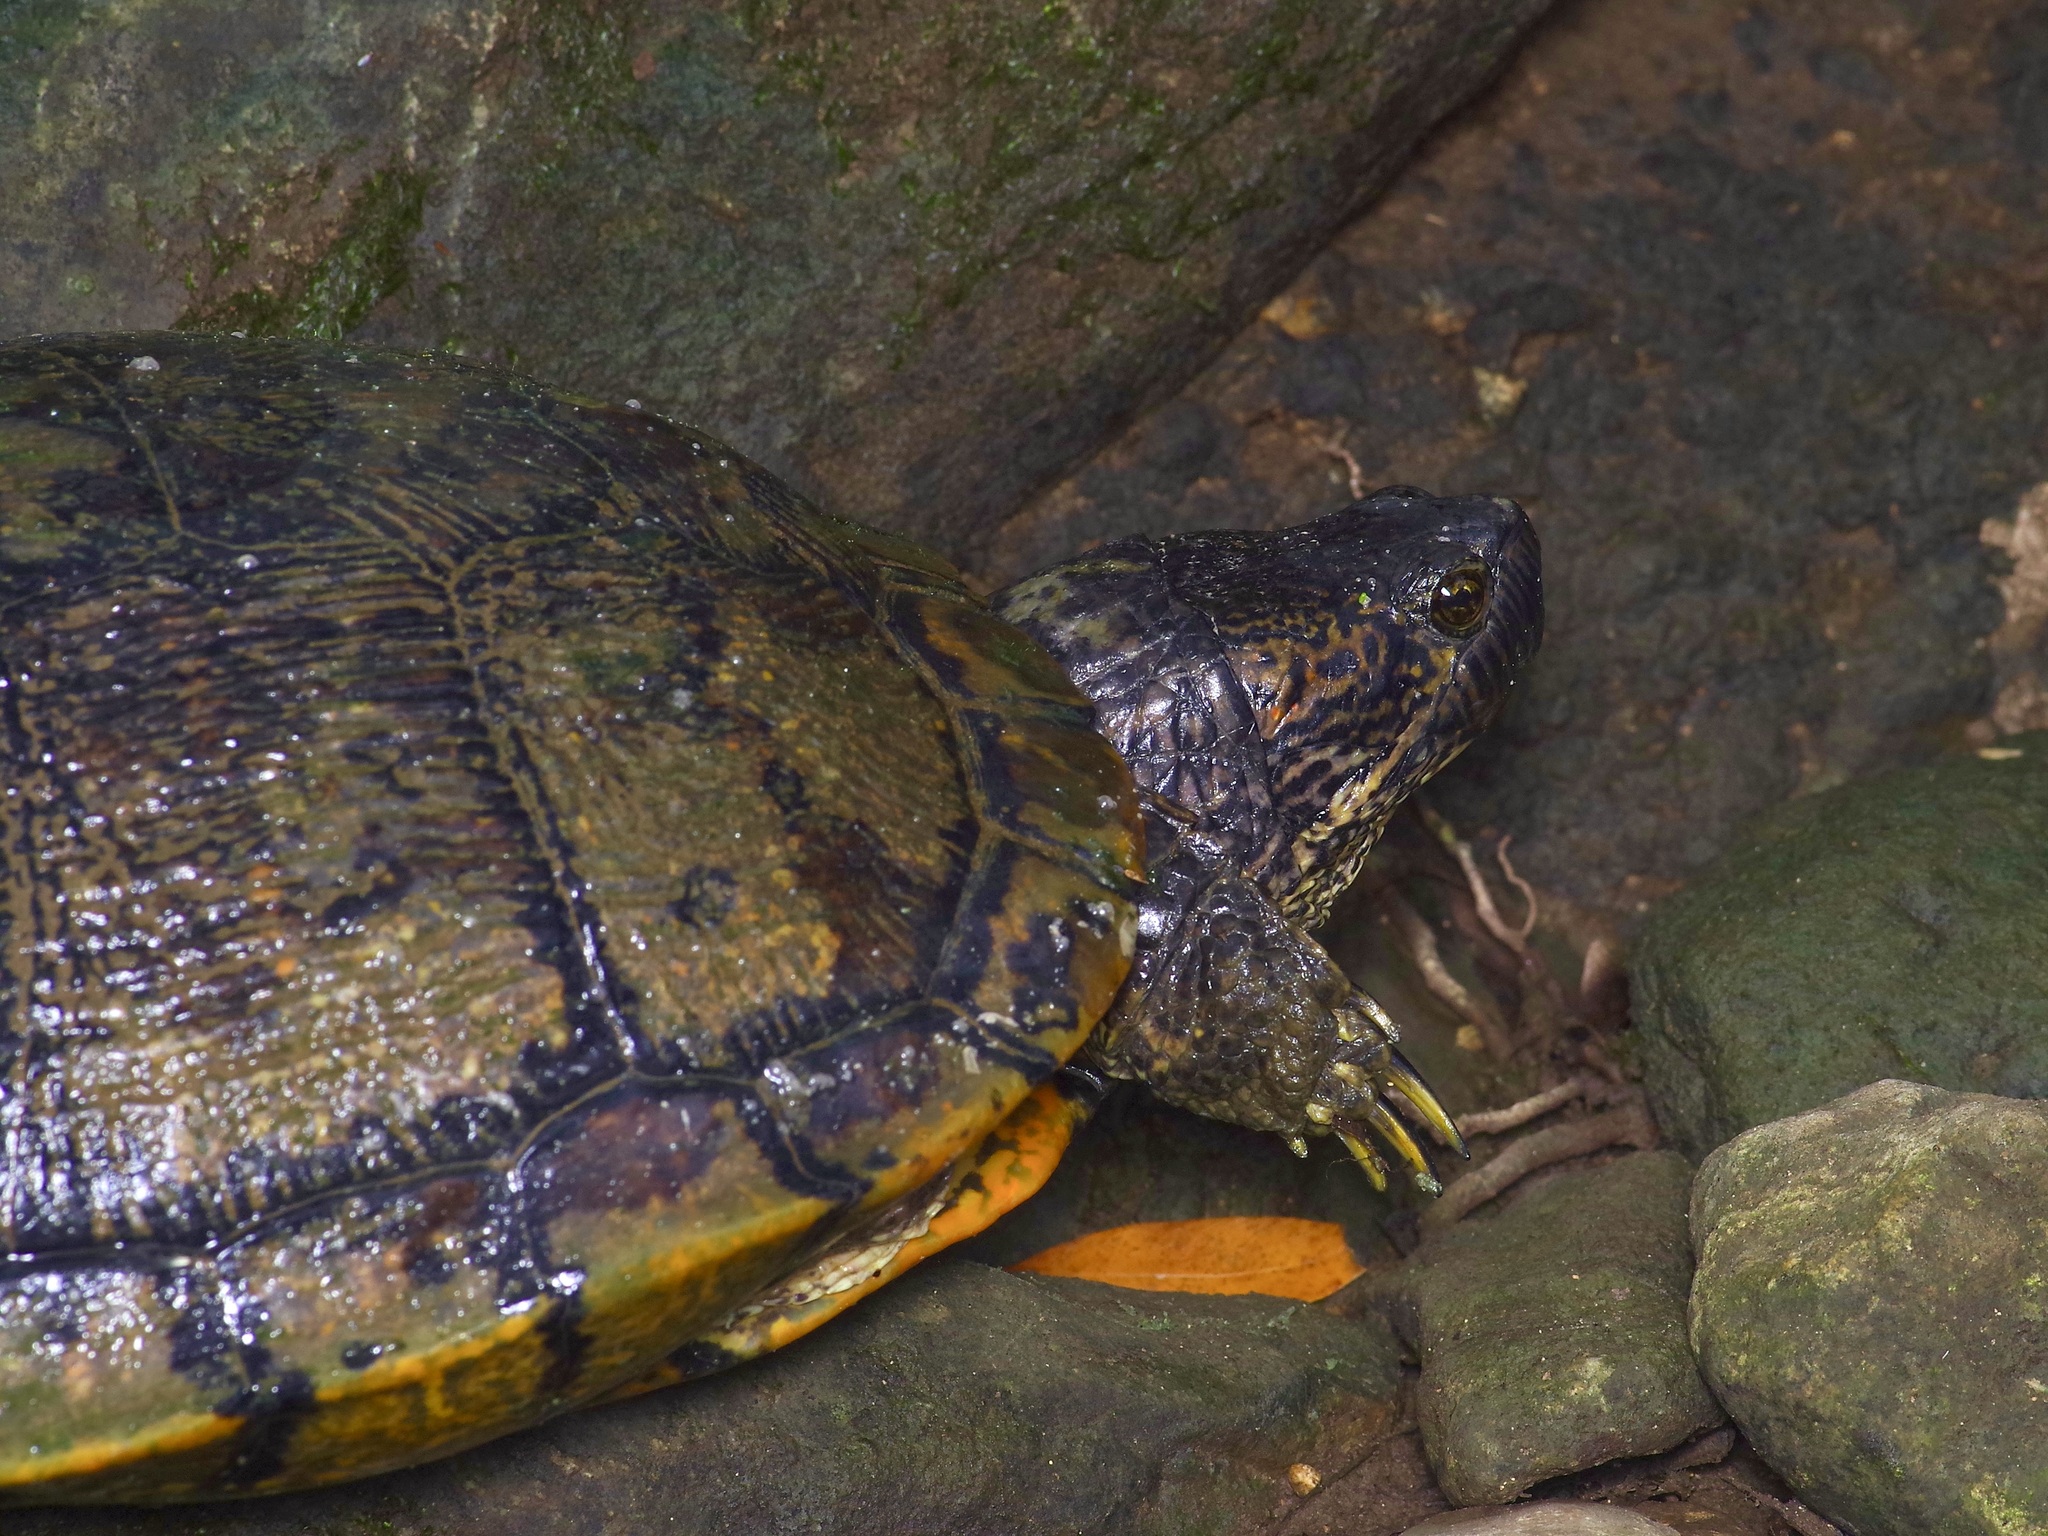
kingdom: Animalia
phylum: Chordata
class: Testudines
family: Emydidae
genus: Trachemys
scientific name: Trachemys scripta
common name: Slider
